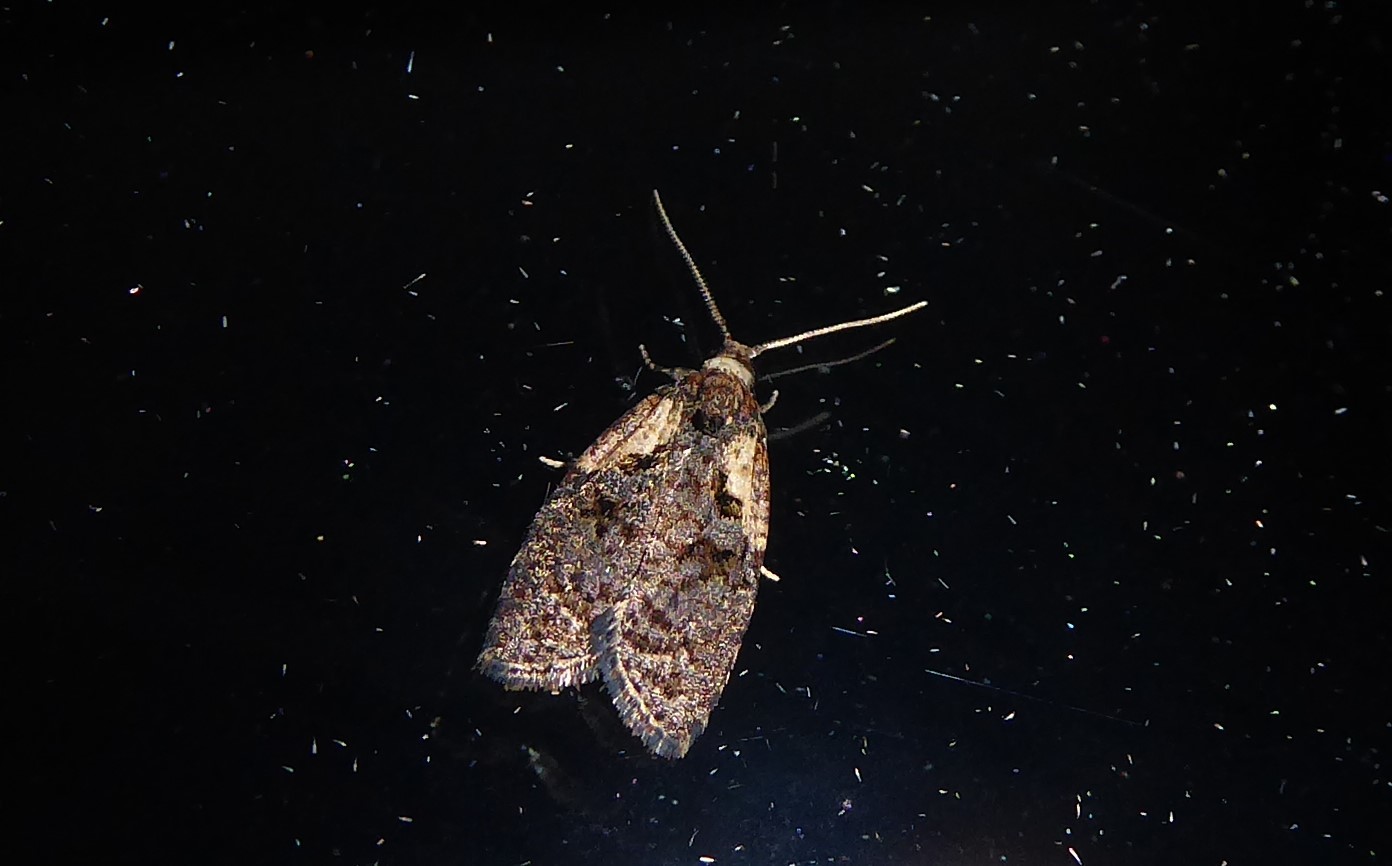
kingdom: Animalia
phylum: Arthropoda
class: Insecta
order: Lepidoptera
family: Tortricidae
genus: Capua
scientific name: Capua intractana
